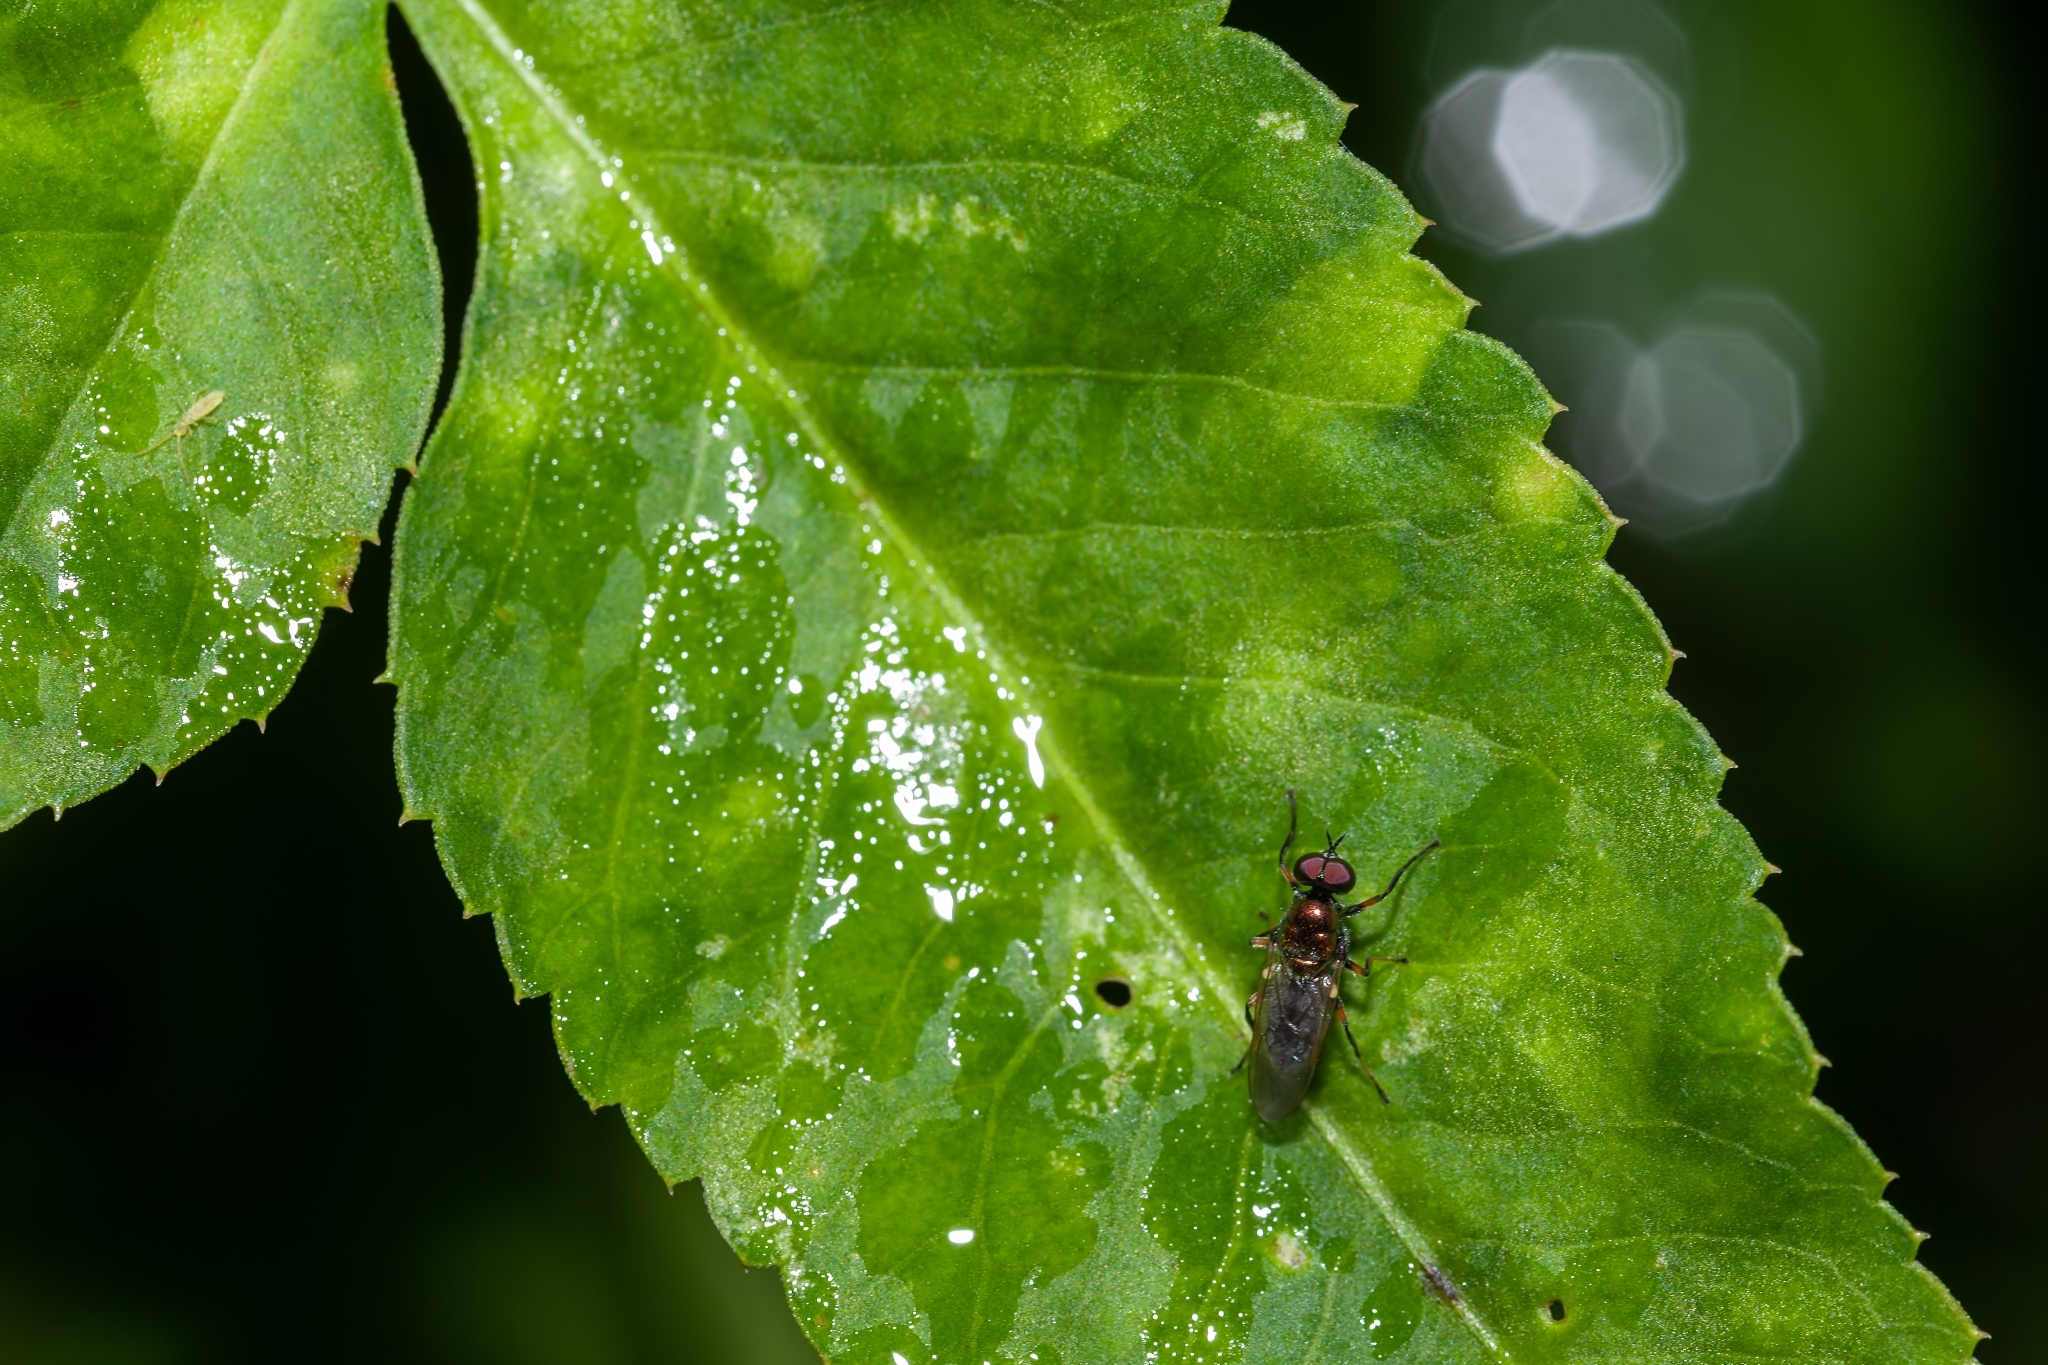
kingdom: Animalia
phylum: Arthropoda
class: Insecta
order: Diptera
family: Stratiomyidae
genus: Nothomyia
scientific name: Nothomyia calopus
